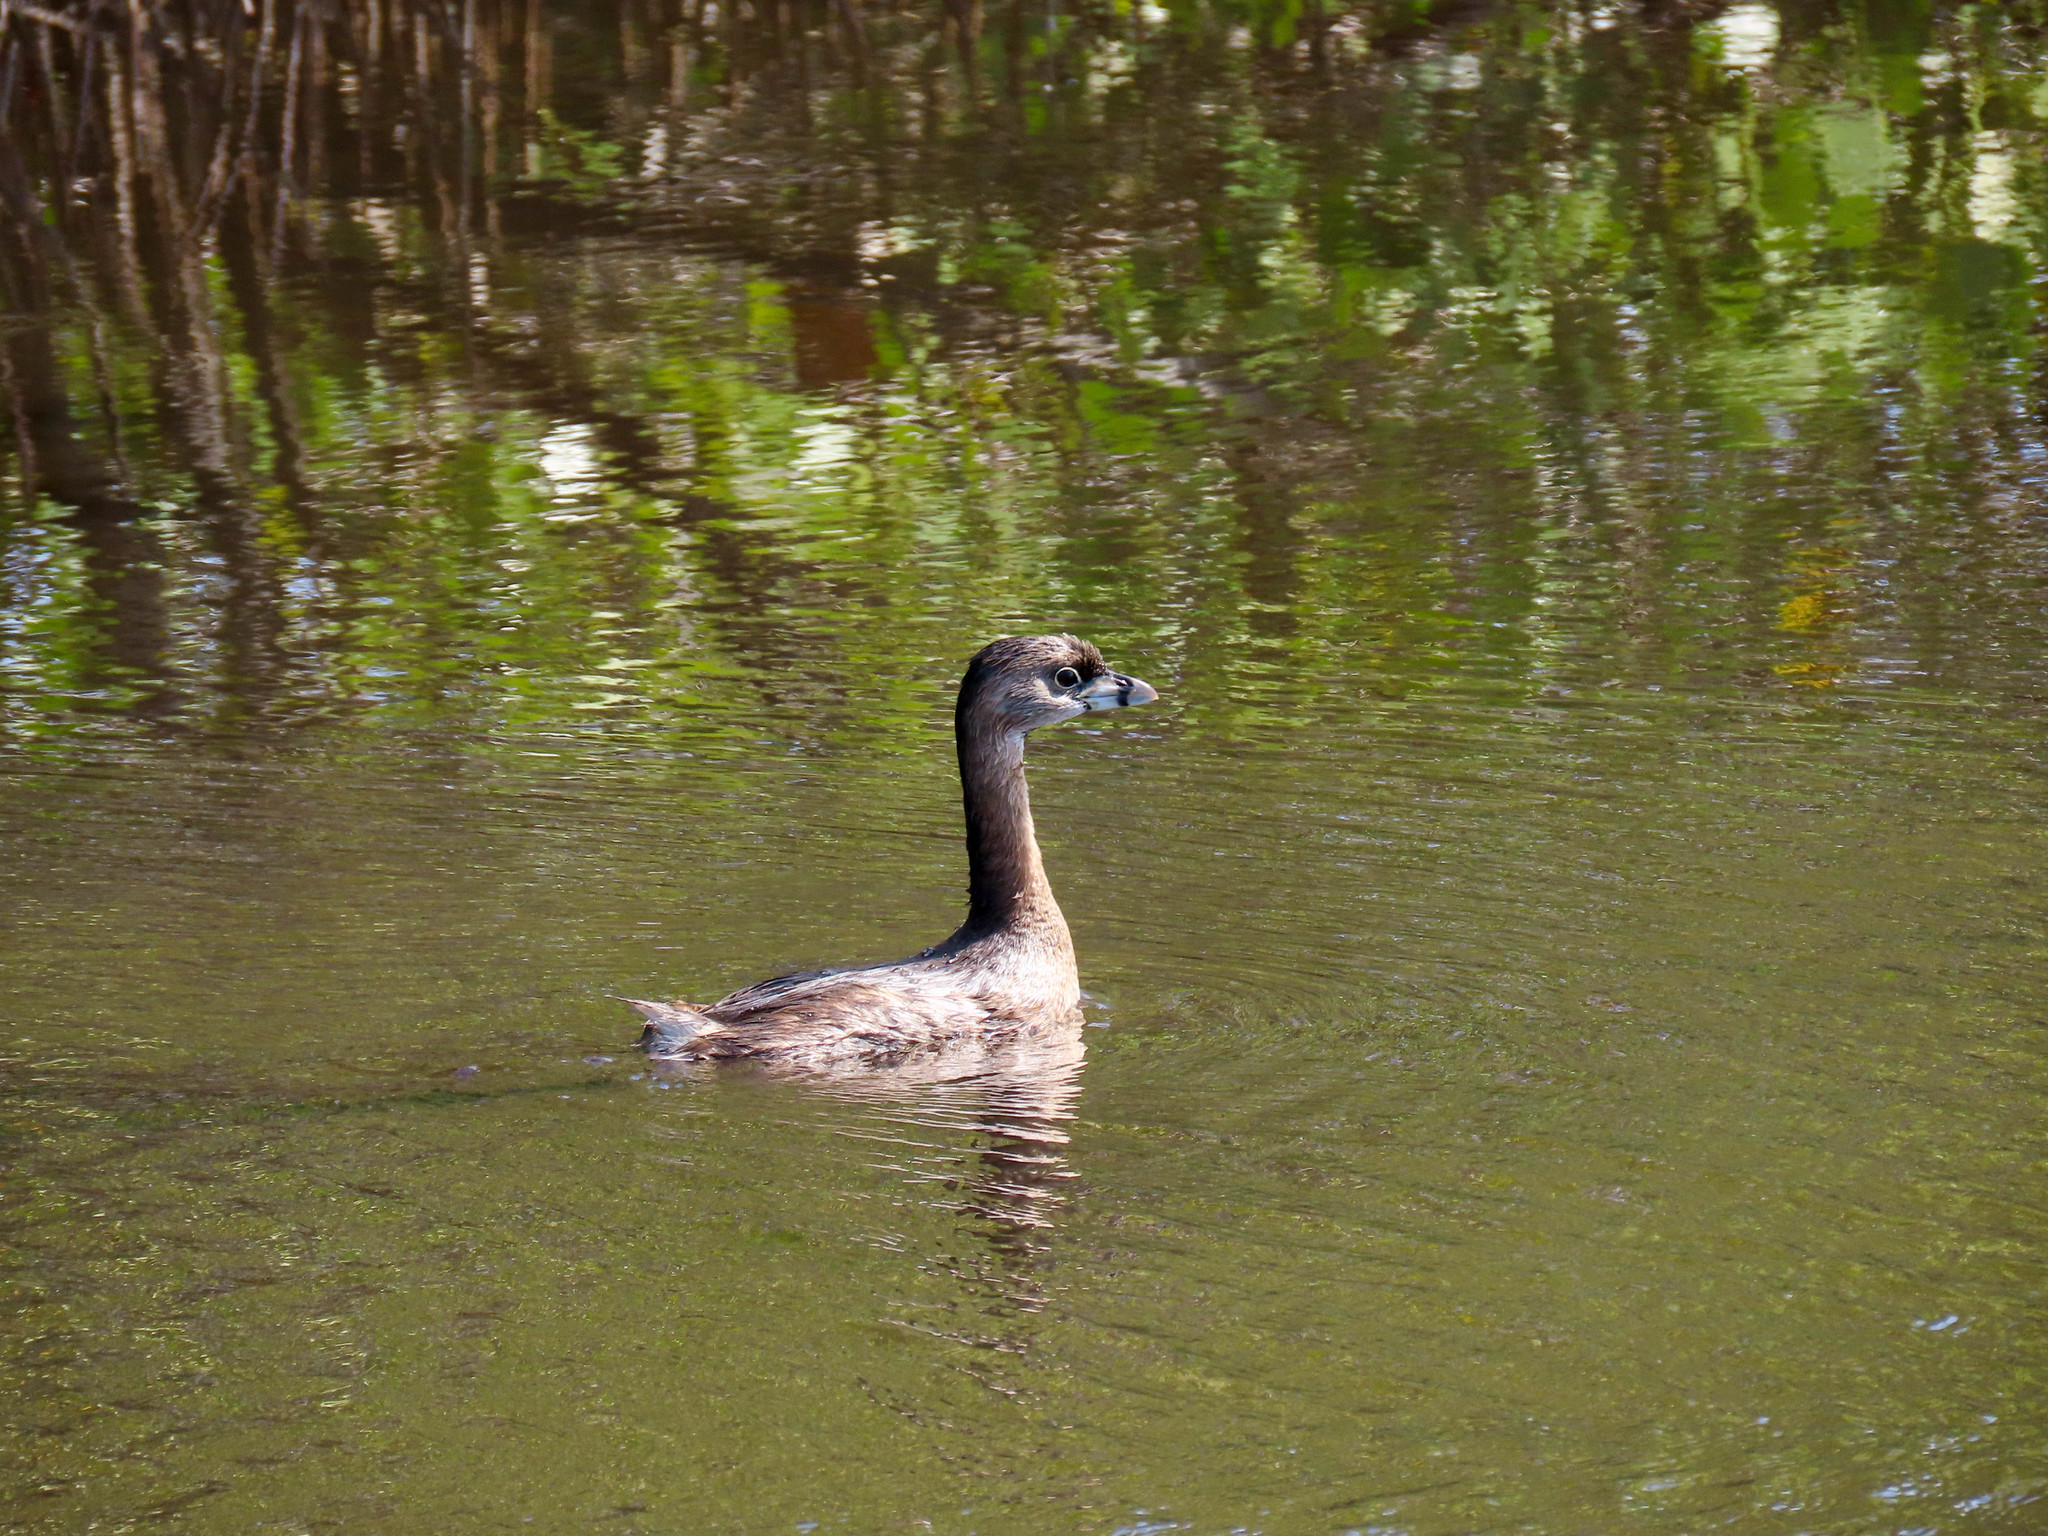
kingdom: Animalia
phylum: Chordata
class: Aves
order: Podicipediformes
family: Podicipedidae
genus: Podilymbus
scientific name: Podilymbus podiceps
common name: Pied-billed grebe
